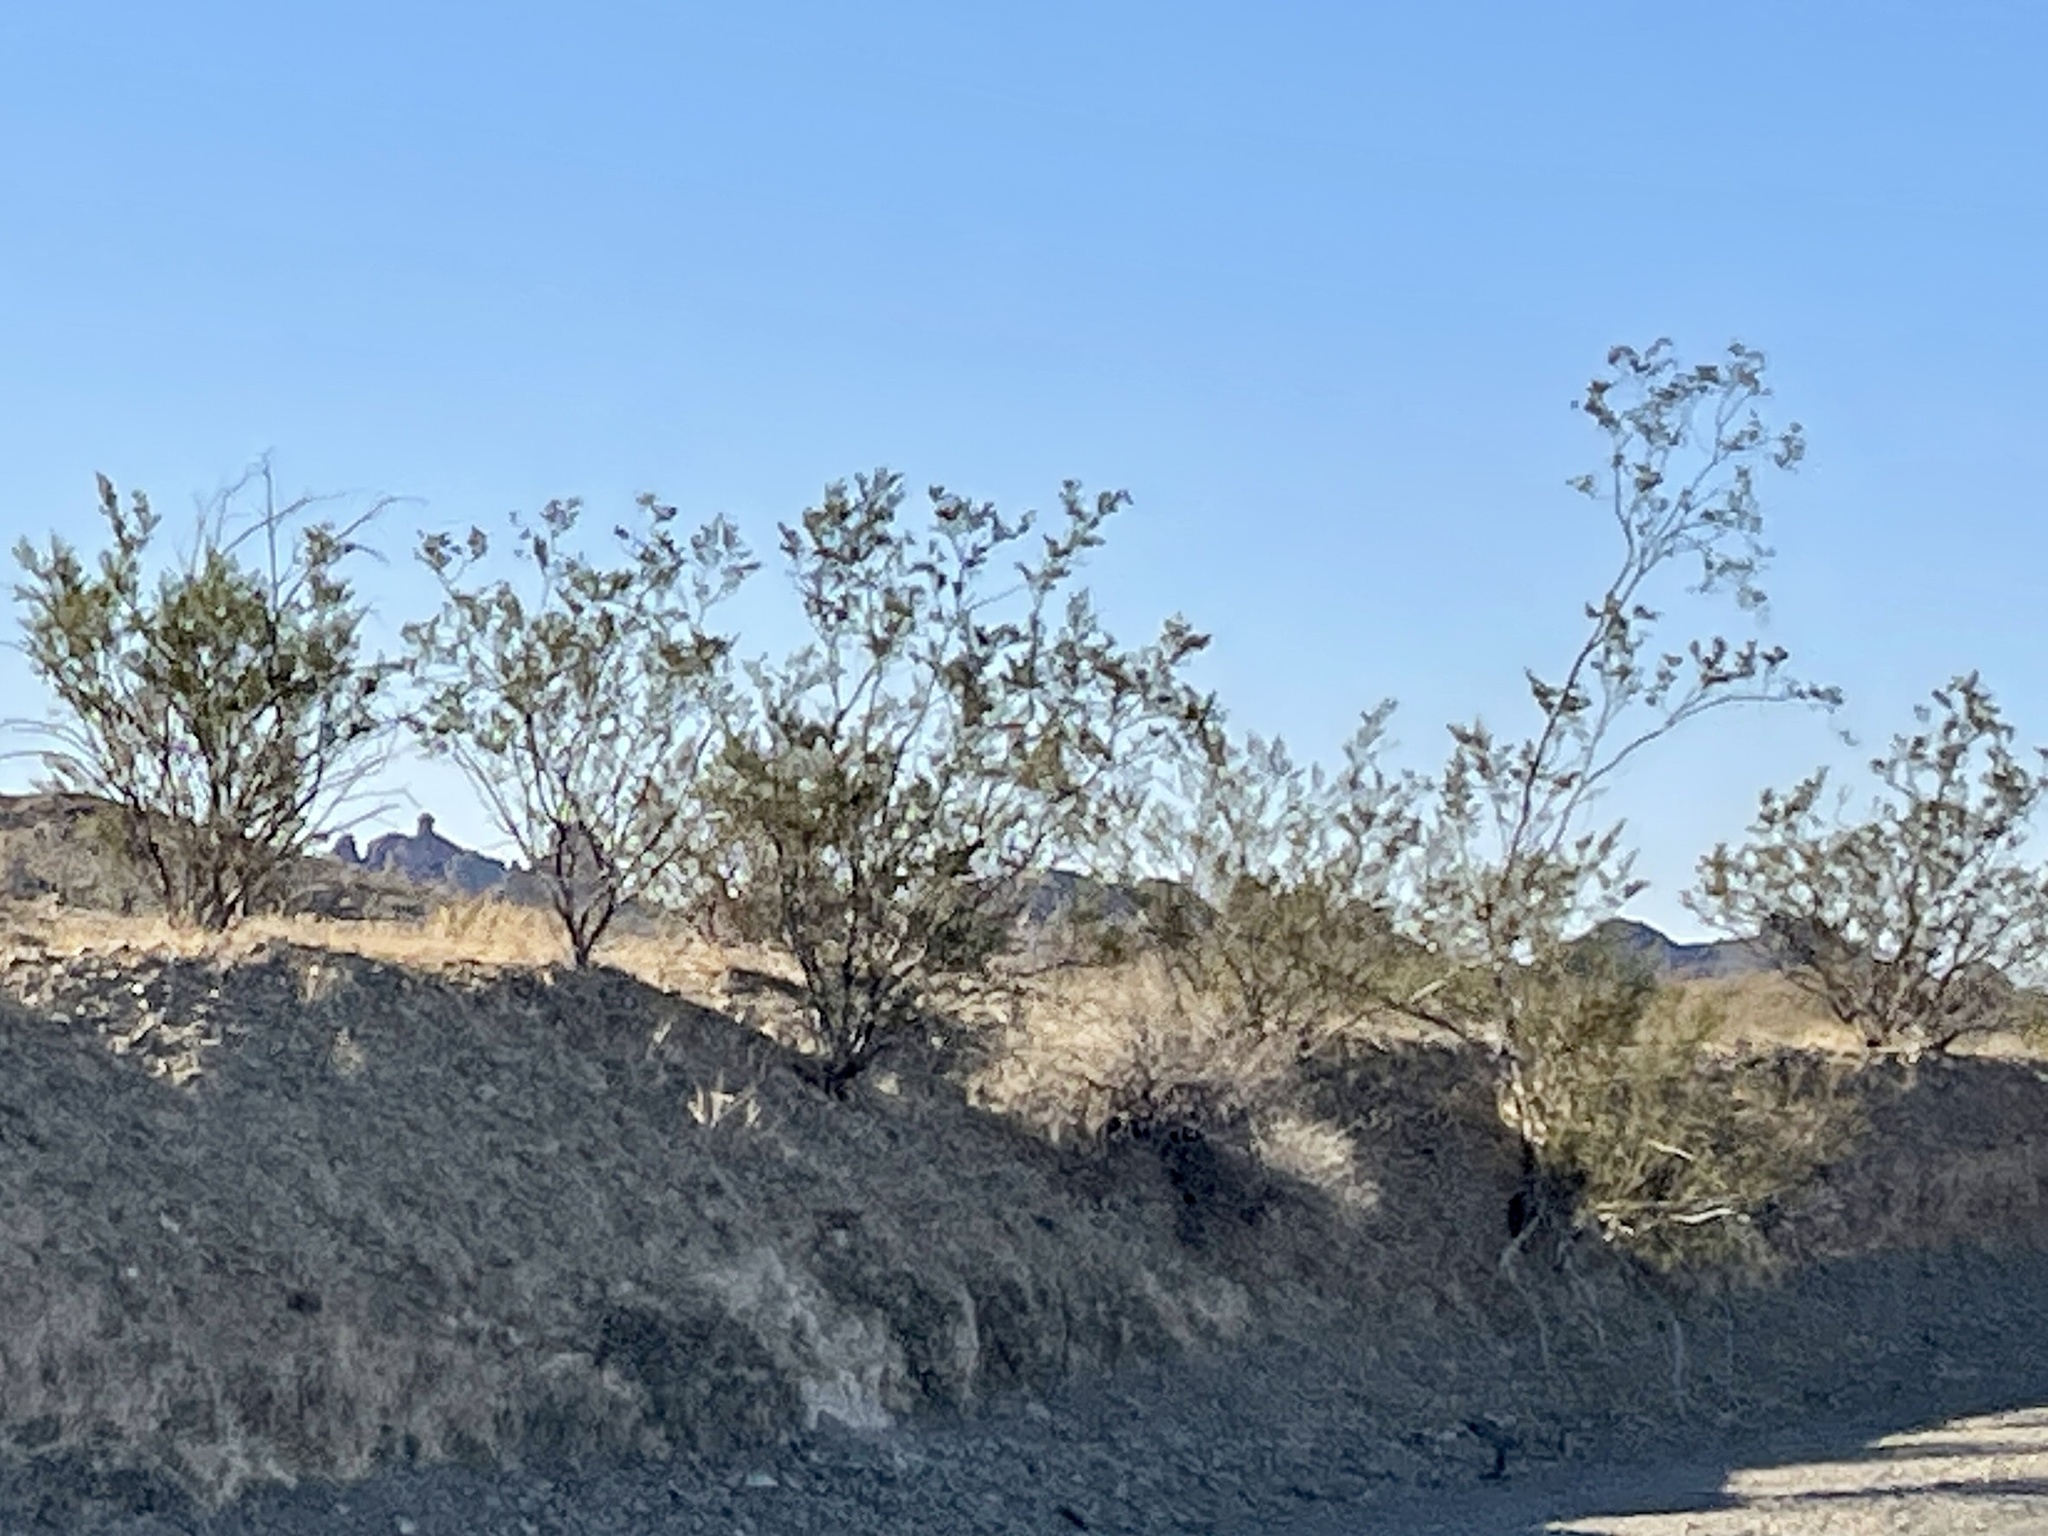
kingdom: Plantae
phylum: Tracheophyta
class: Magnoliopsida
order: Zygophyllales
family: Zygophyllaceae
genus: Larrea
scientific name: Larrea tridentata
